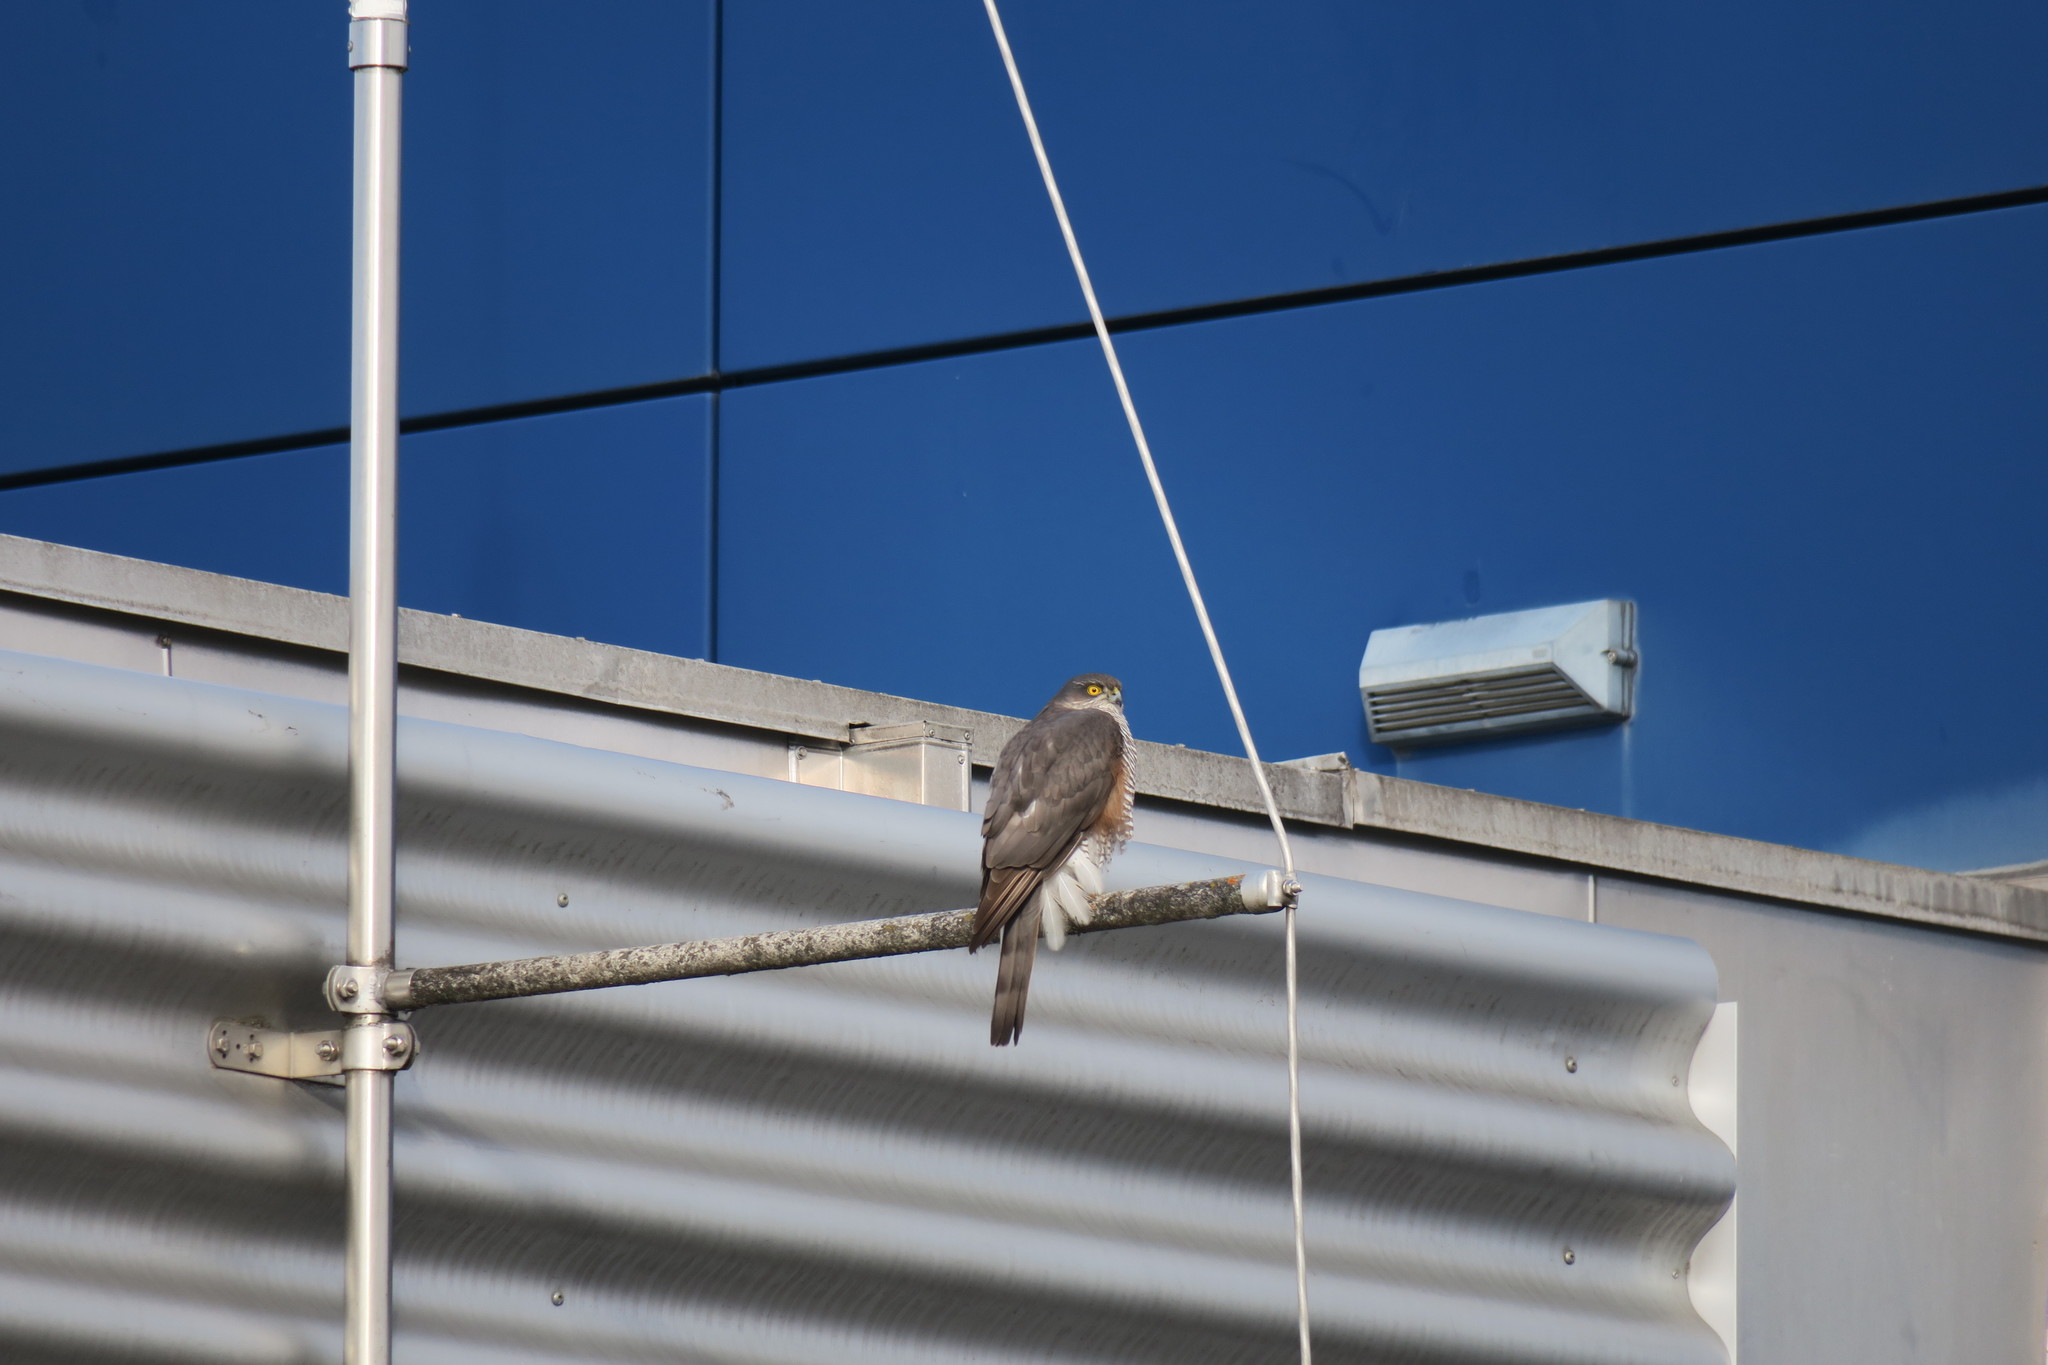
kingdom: Animalia
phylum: Chordata
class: Aves
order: Accipitriformes
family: Accipitridae
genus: Accipiter
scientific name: Accipiter nisus
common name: Eurasian sparrowhawk
